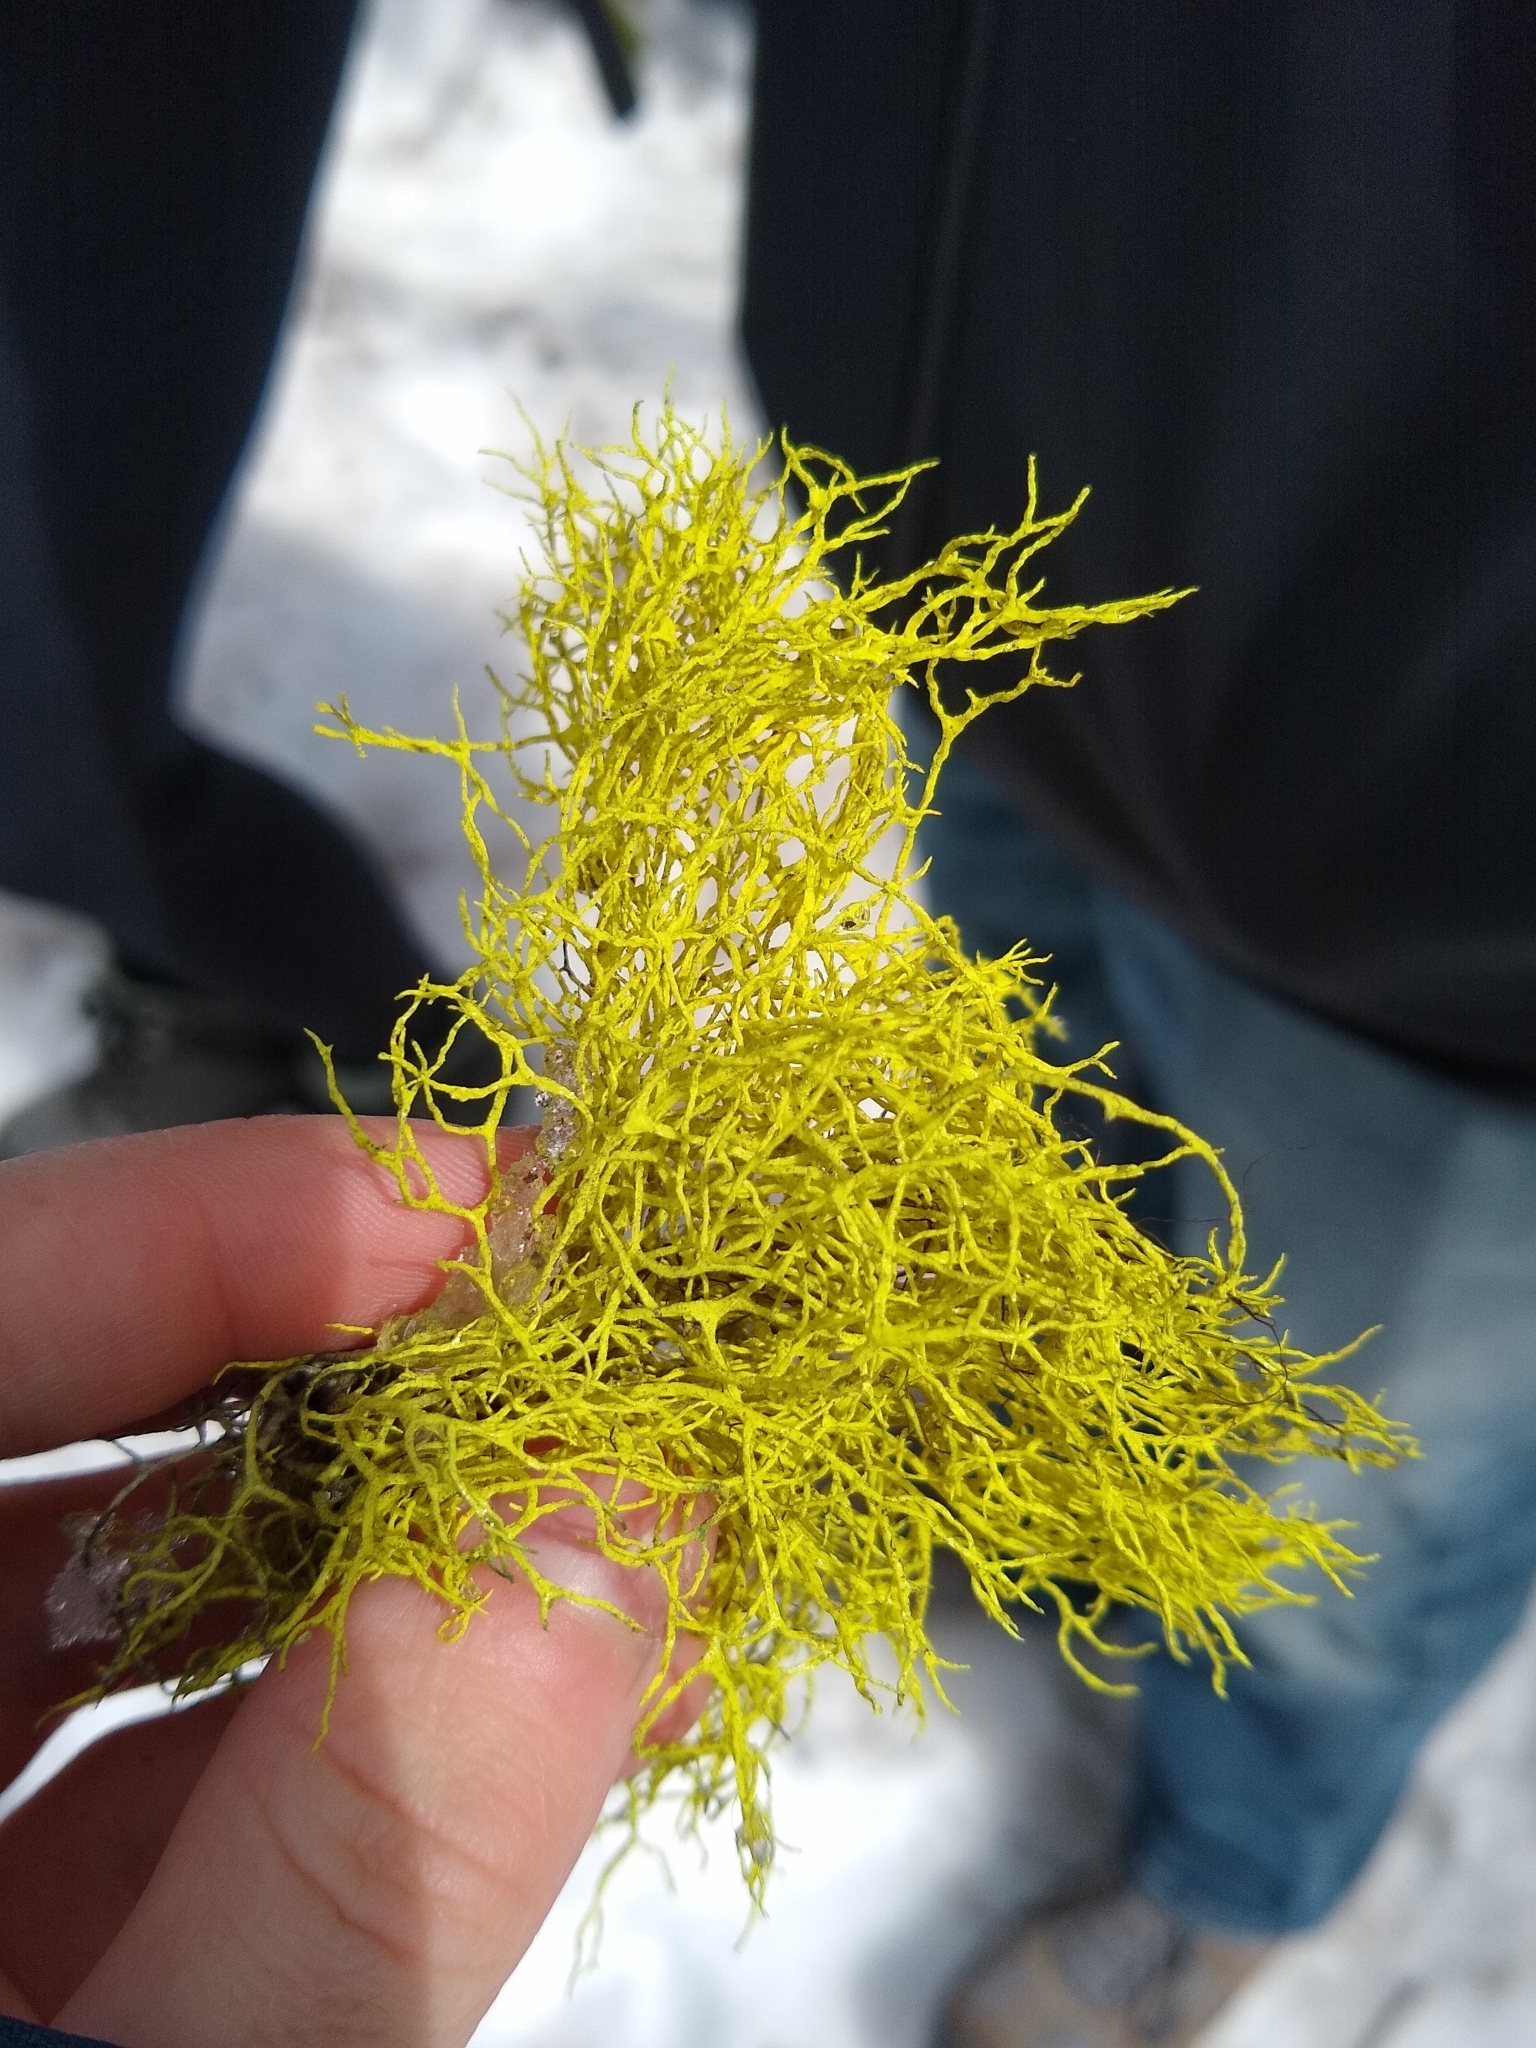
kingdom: Fungi
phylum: Ascomycota
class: Lecanoromycetes
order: Lecanorales
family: Parmeliaceae
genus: Letharia
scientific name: Letharia vulpina
